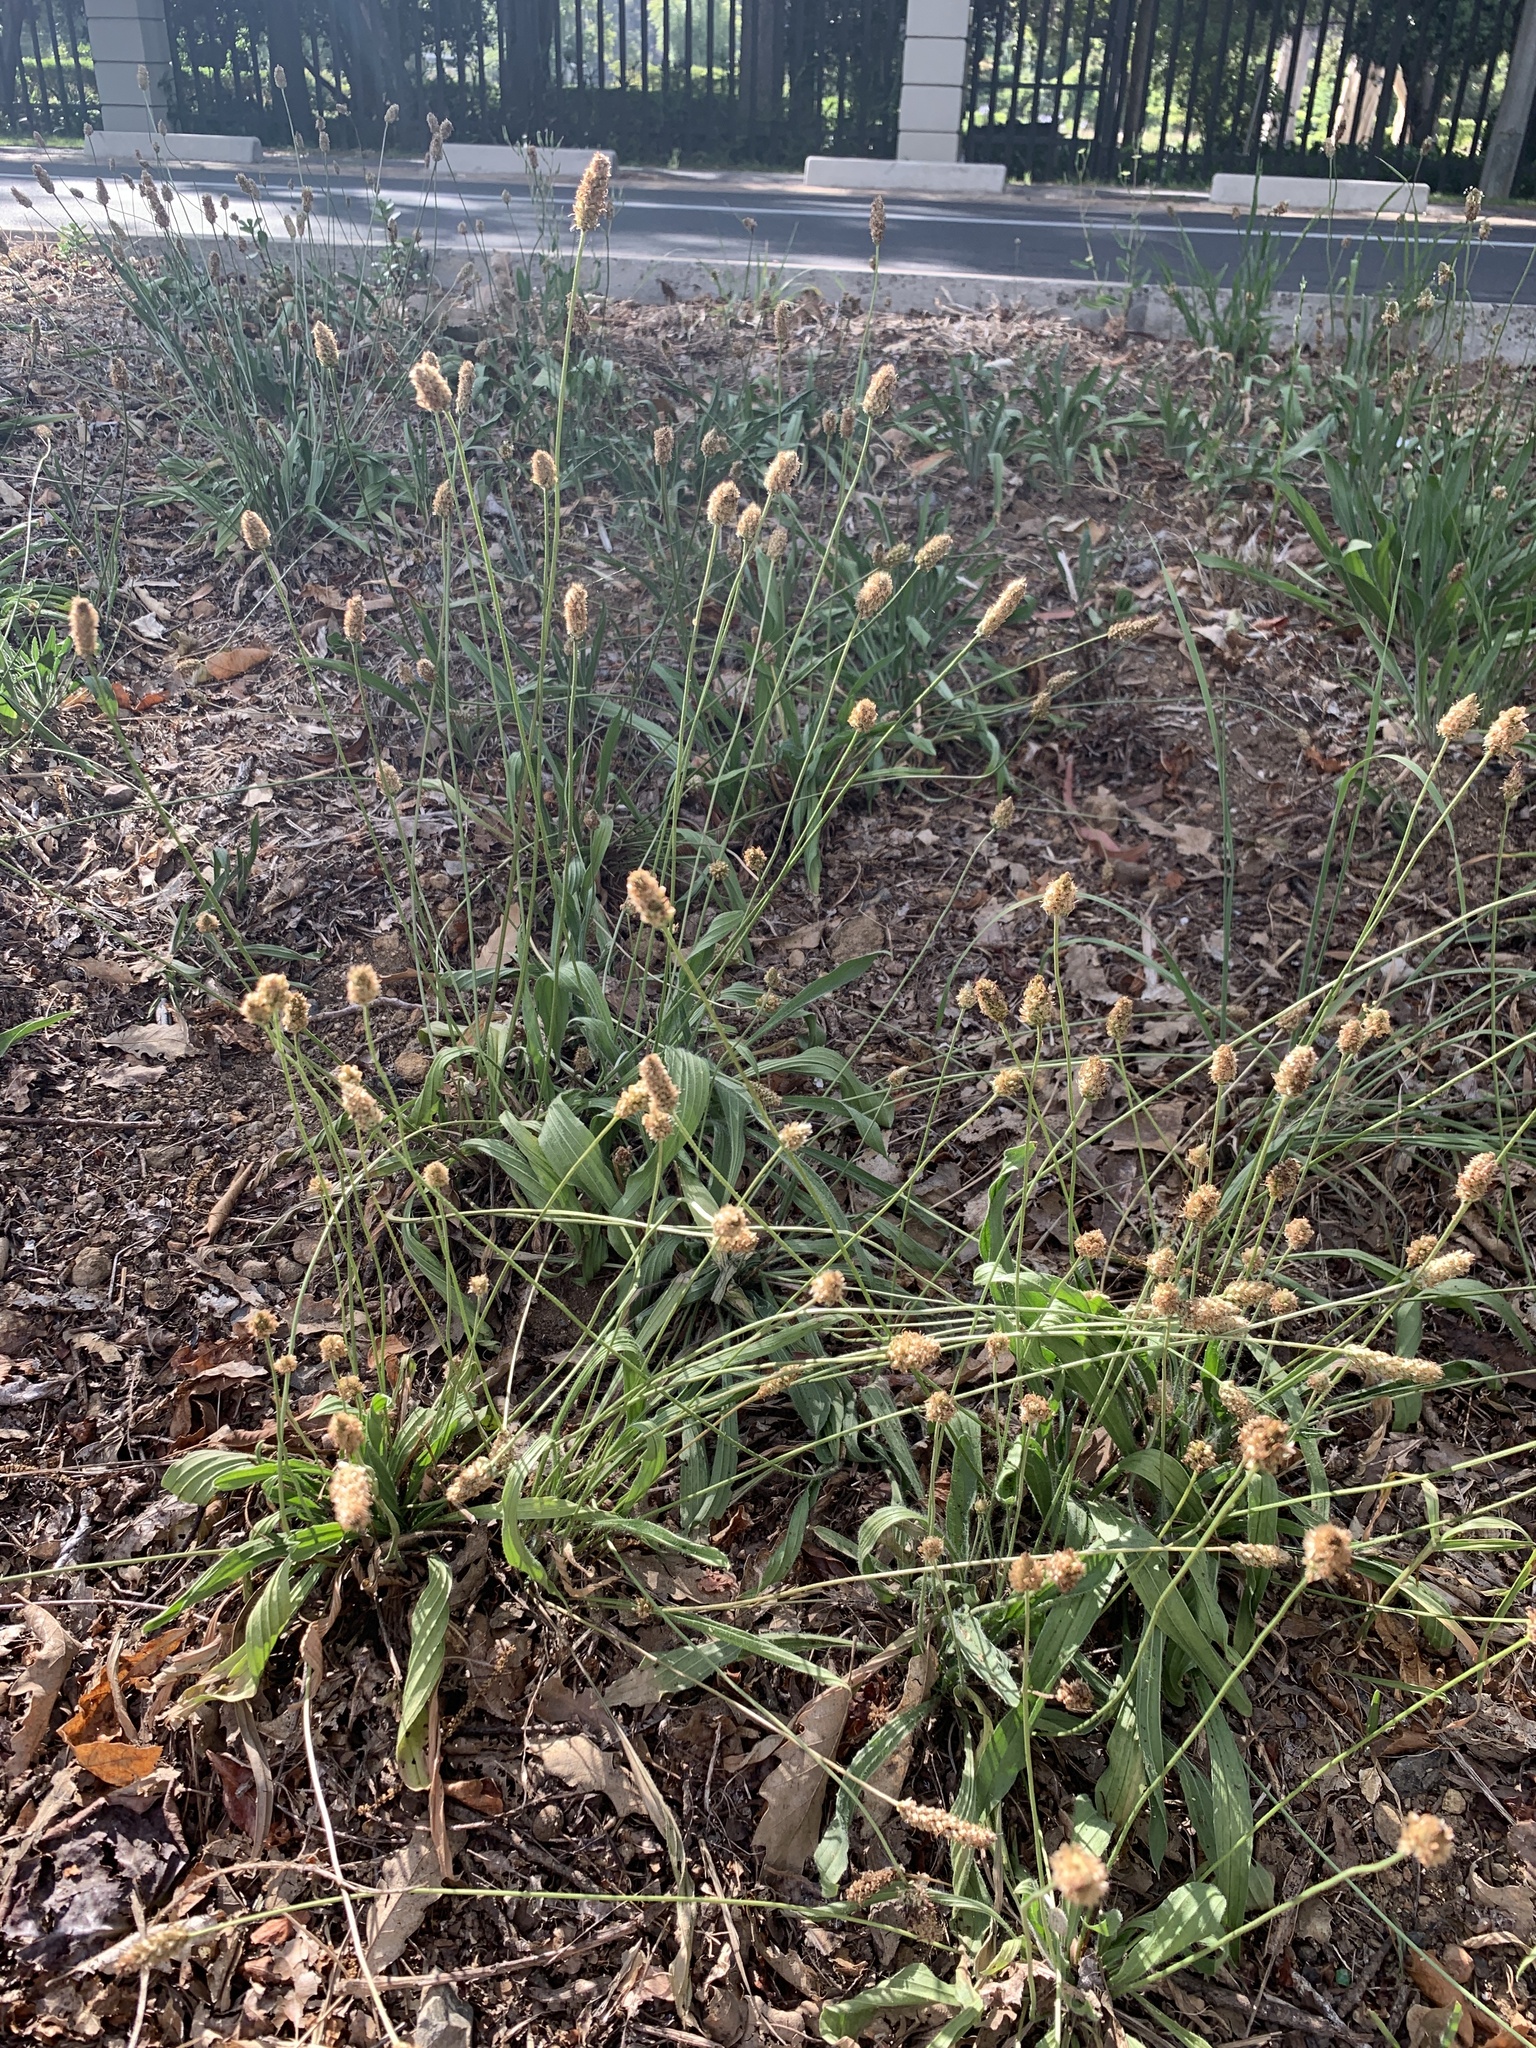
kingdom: Plantae
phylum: Tracheophyta
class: Magnoliopsida
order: Lamiales
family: Plantaginaceae
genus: Plantago
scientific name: Plantago lanceolata
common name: Ribwort plantain
